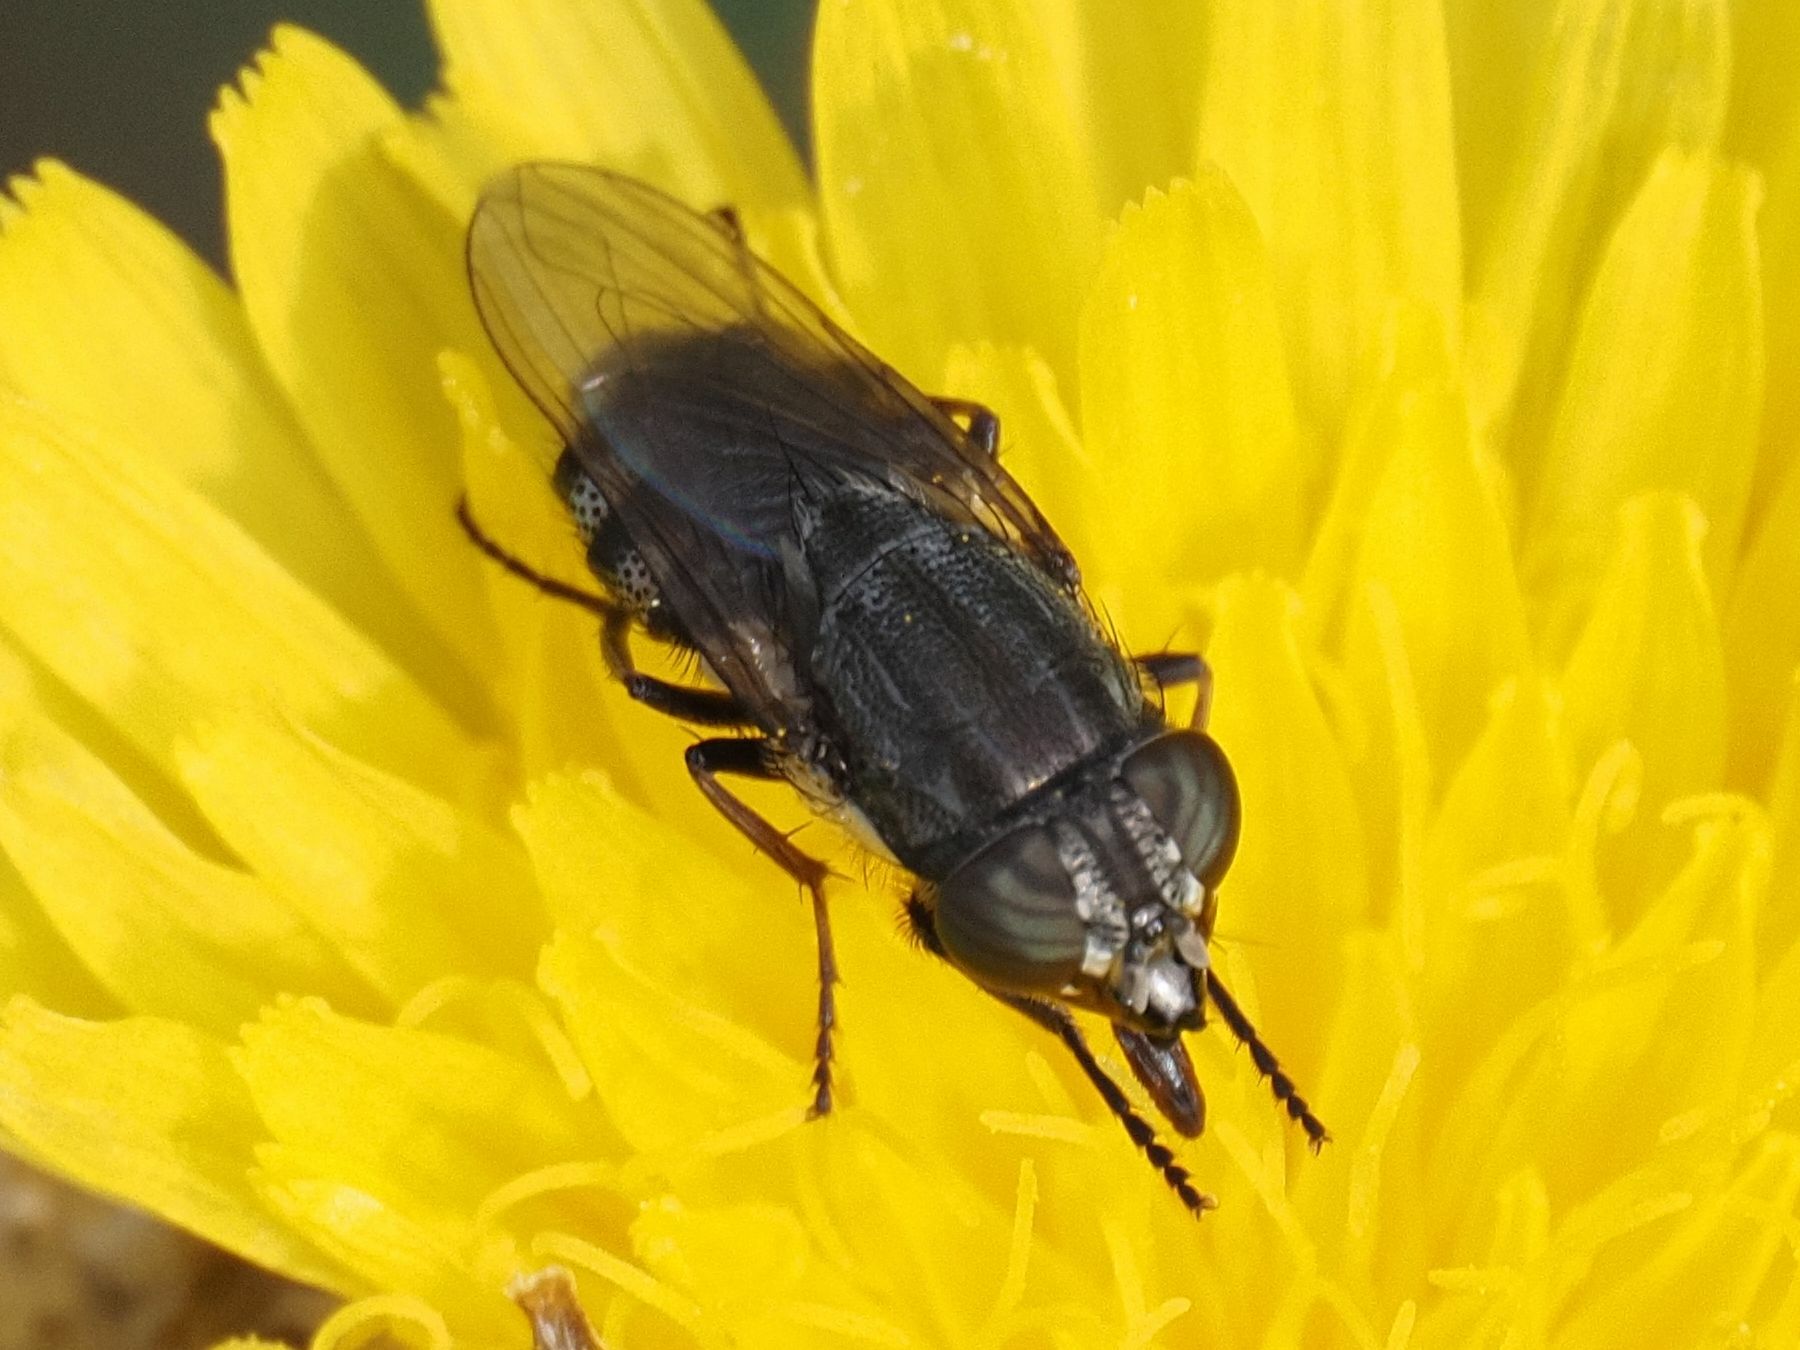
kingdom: Animalia
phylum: Arthropoda
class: Insecta
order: Diptera
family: Calliphoridae
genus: Stomorhina
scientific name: Stomorhina lunata
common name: Locust blowfly
